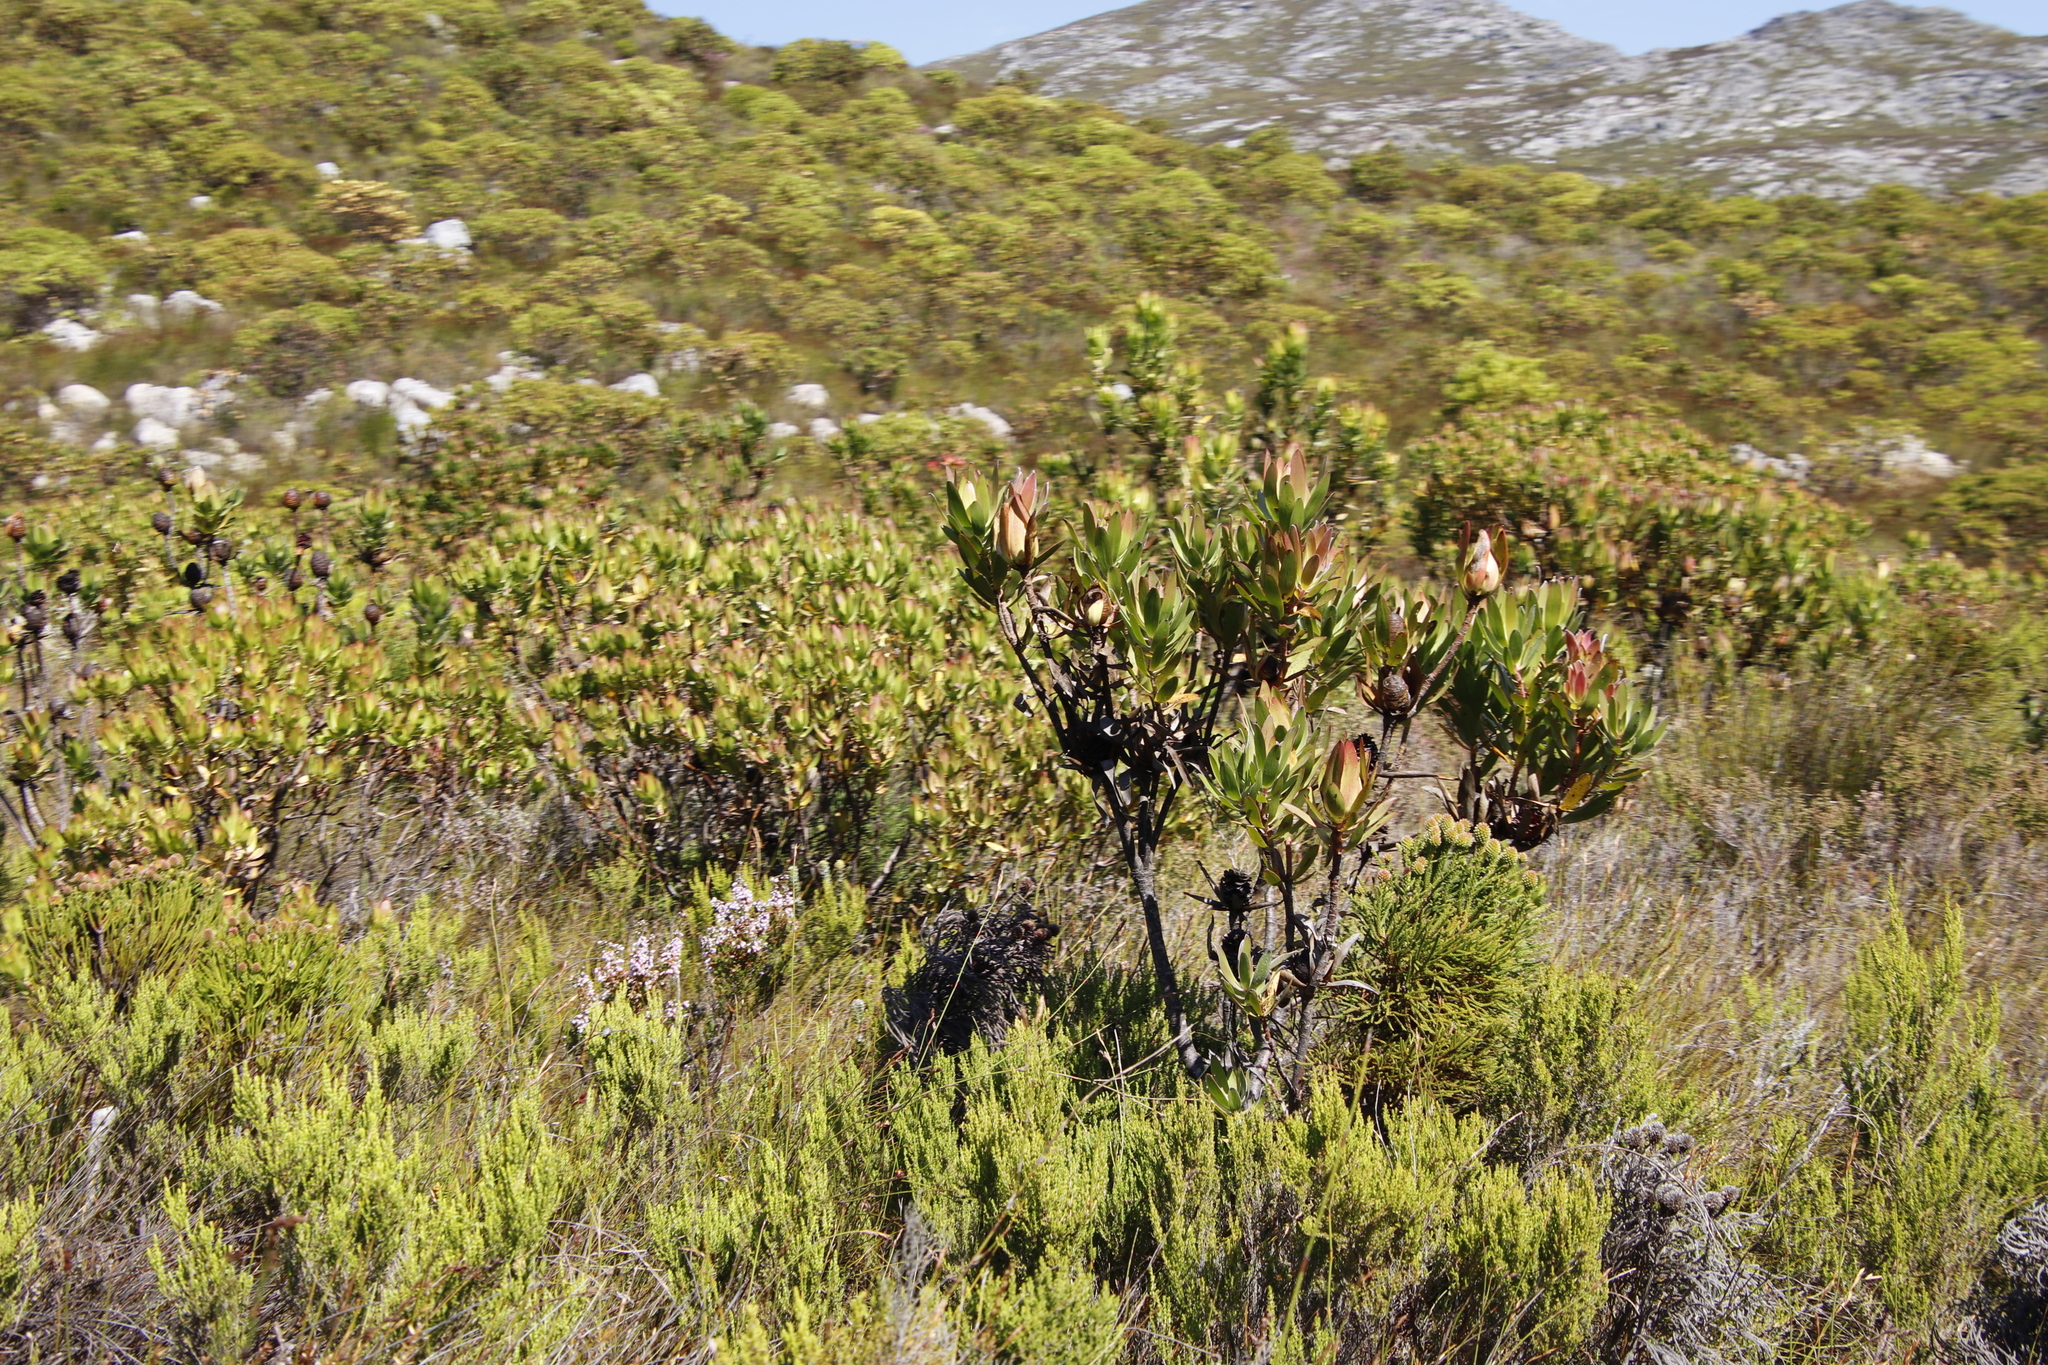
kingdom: Plantae
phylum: Tracheophyta
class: Magnoliopsida
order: Proteales
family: Proteaceae
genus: Leucadendron
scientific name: Leucadendron laureolum
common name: Golden sunshinebush
